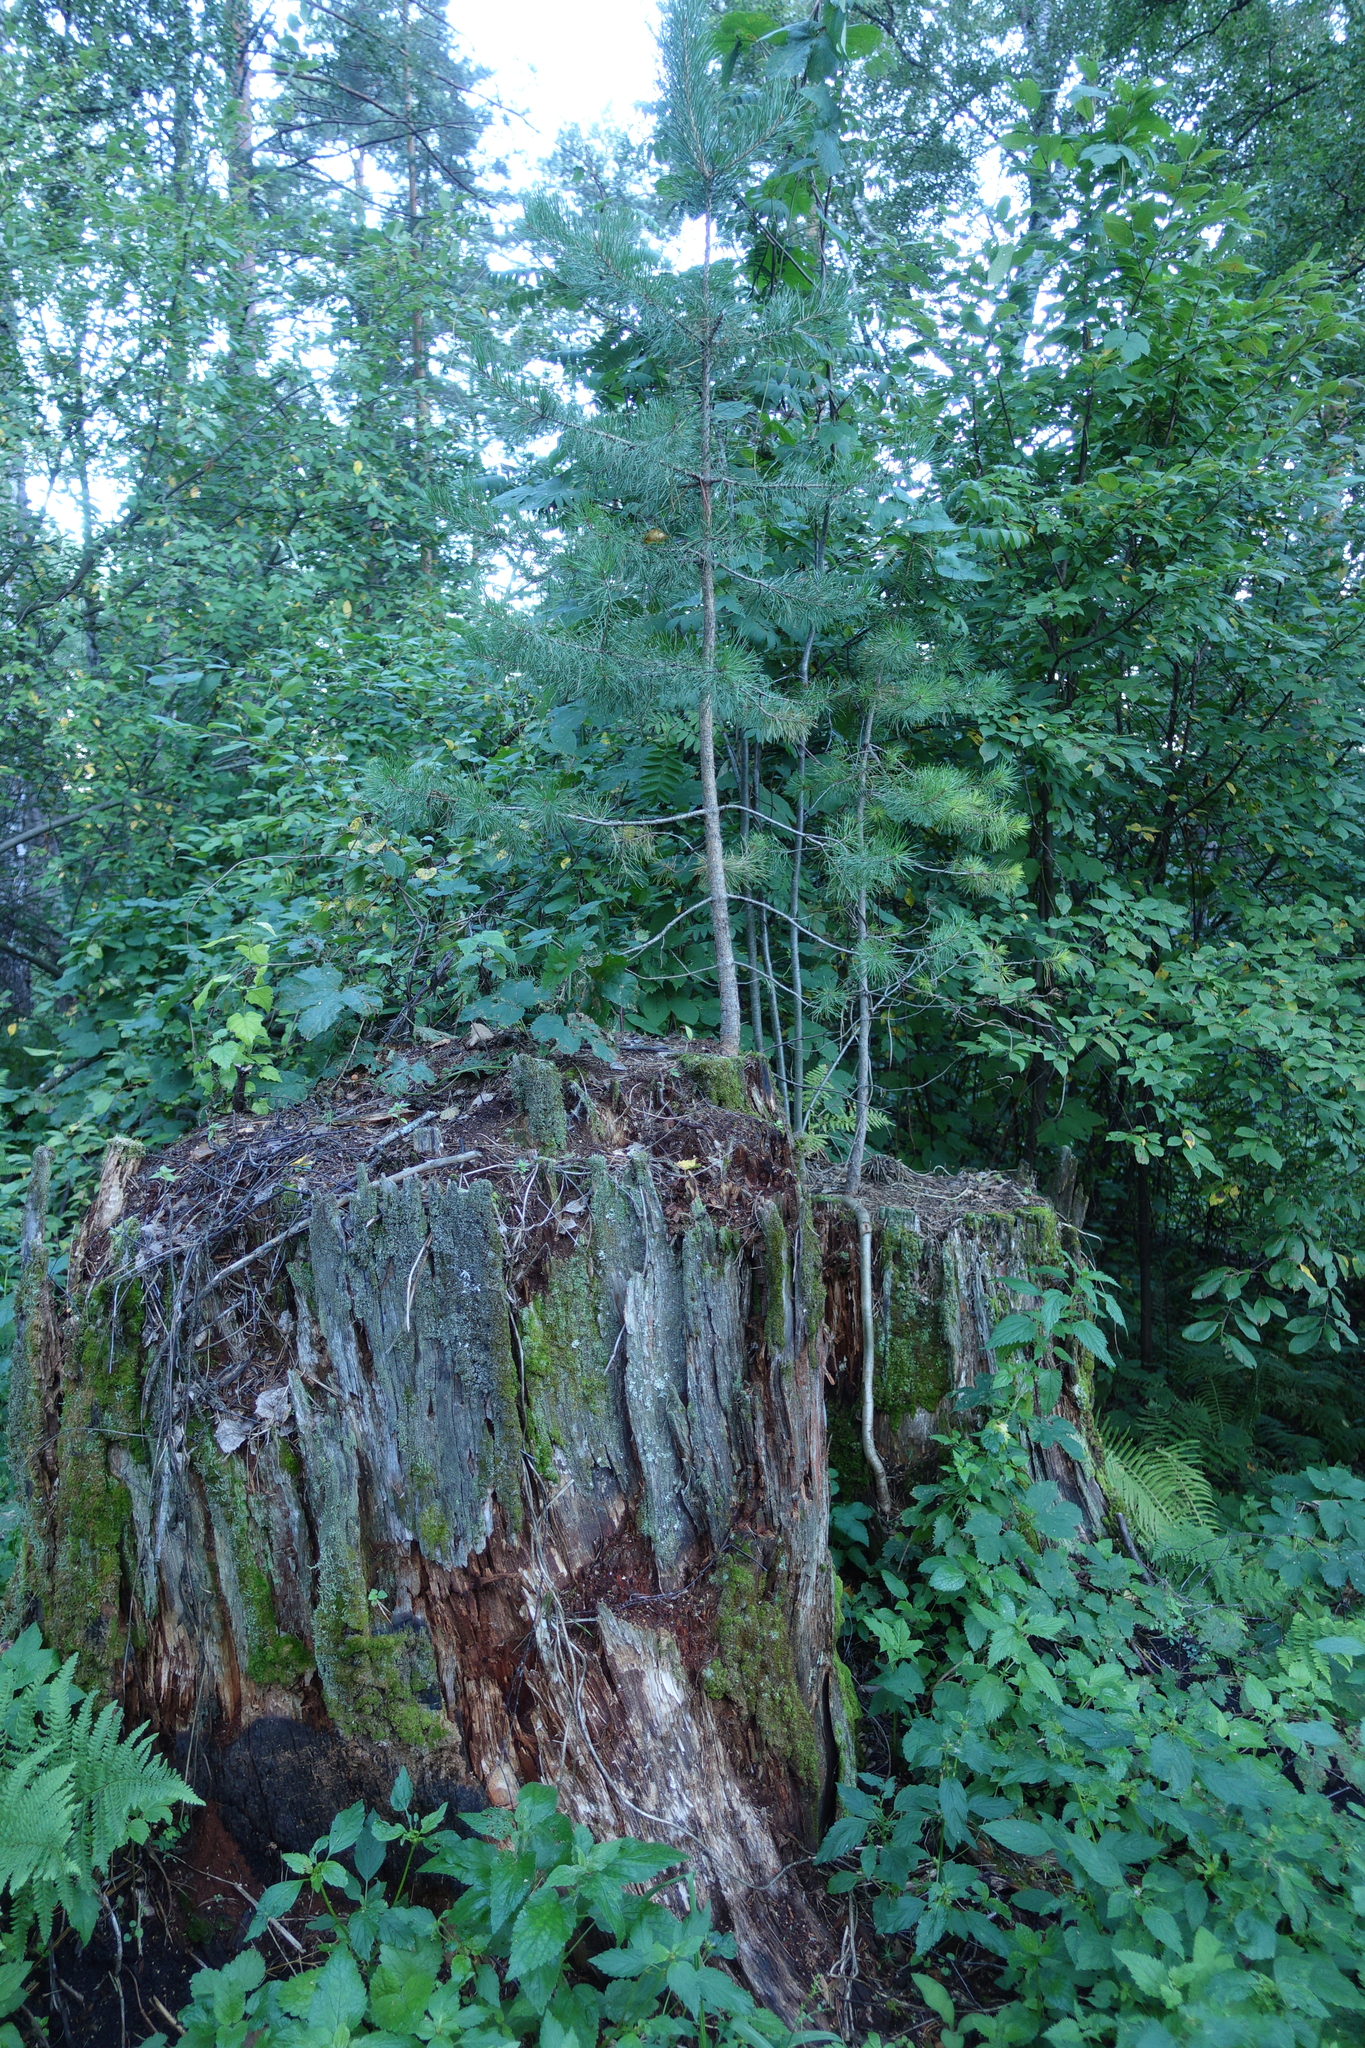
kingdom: Plantae
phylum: Tracheophyta
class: Pinopsida
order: Pinales
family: Pinaceae
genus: Pinus
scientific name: Pinus sylvestris
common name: Scots pine
